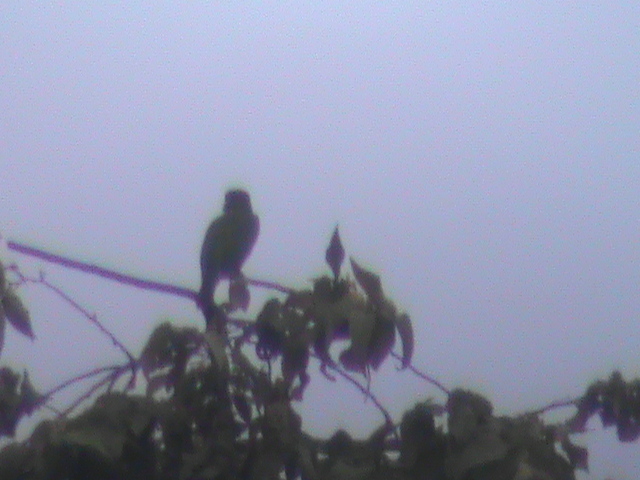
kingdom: Animalia
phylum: Chordata
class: Aves
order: Piciformes
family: Megalaimidae
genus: Psilopogon
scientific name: Psilopogon viridis
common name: White-cheeked barbet
